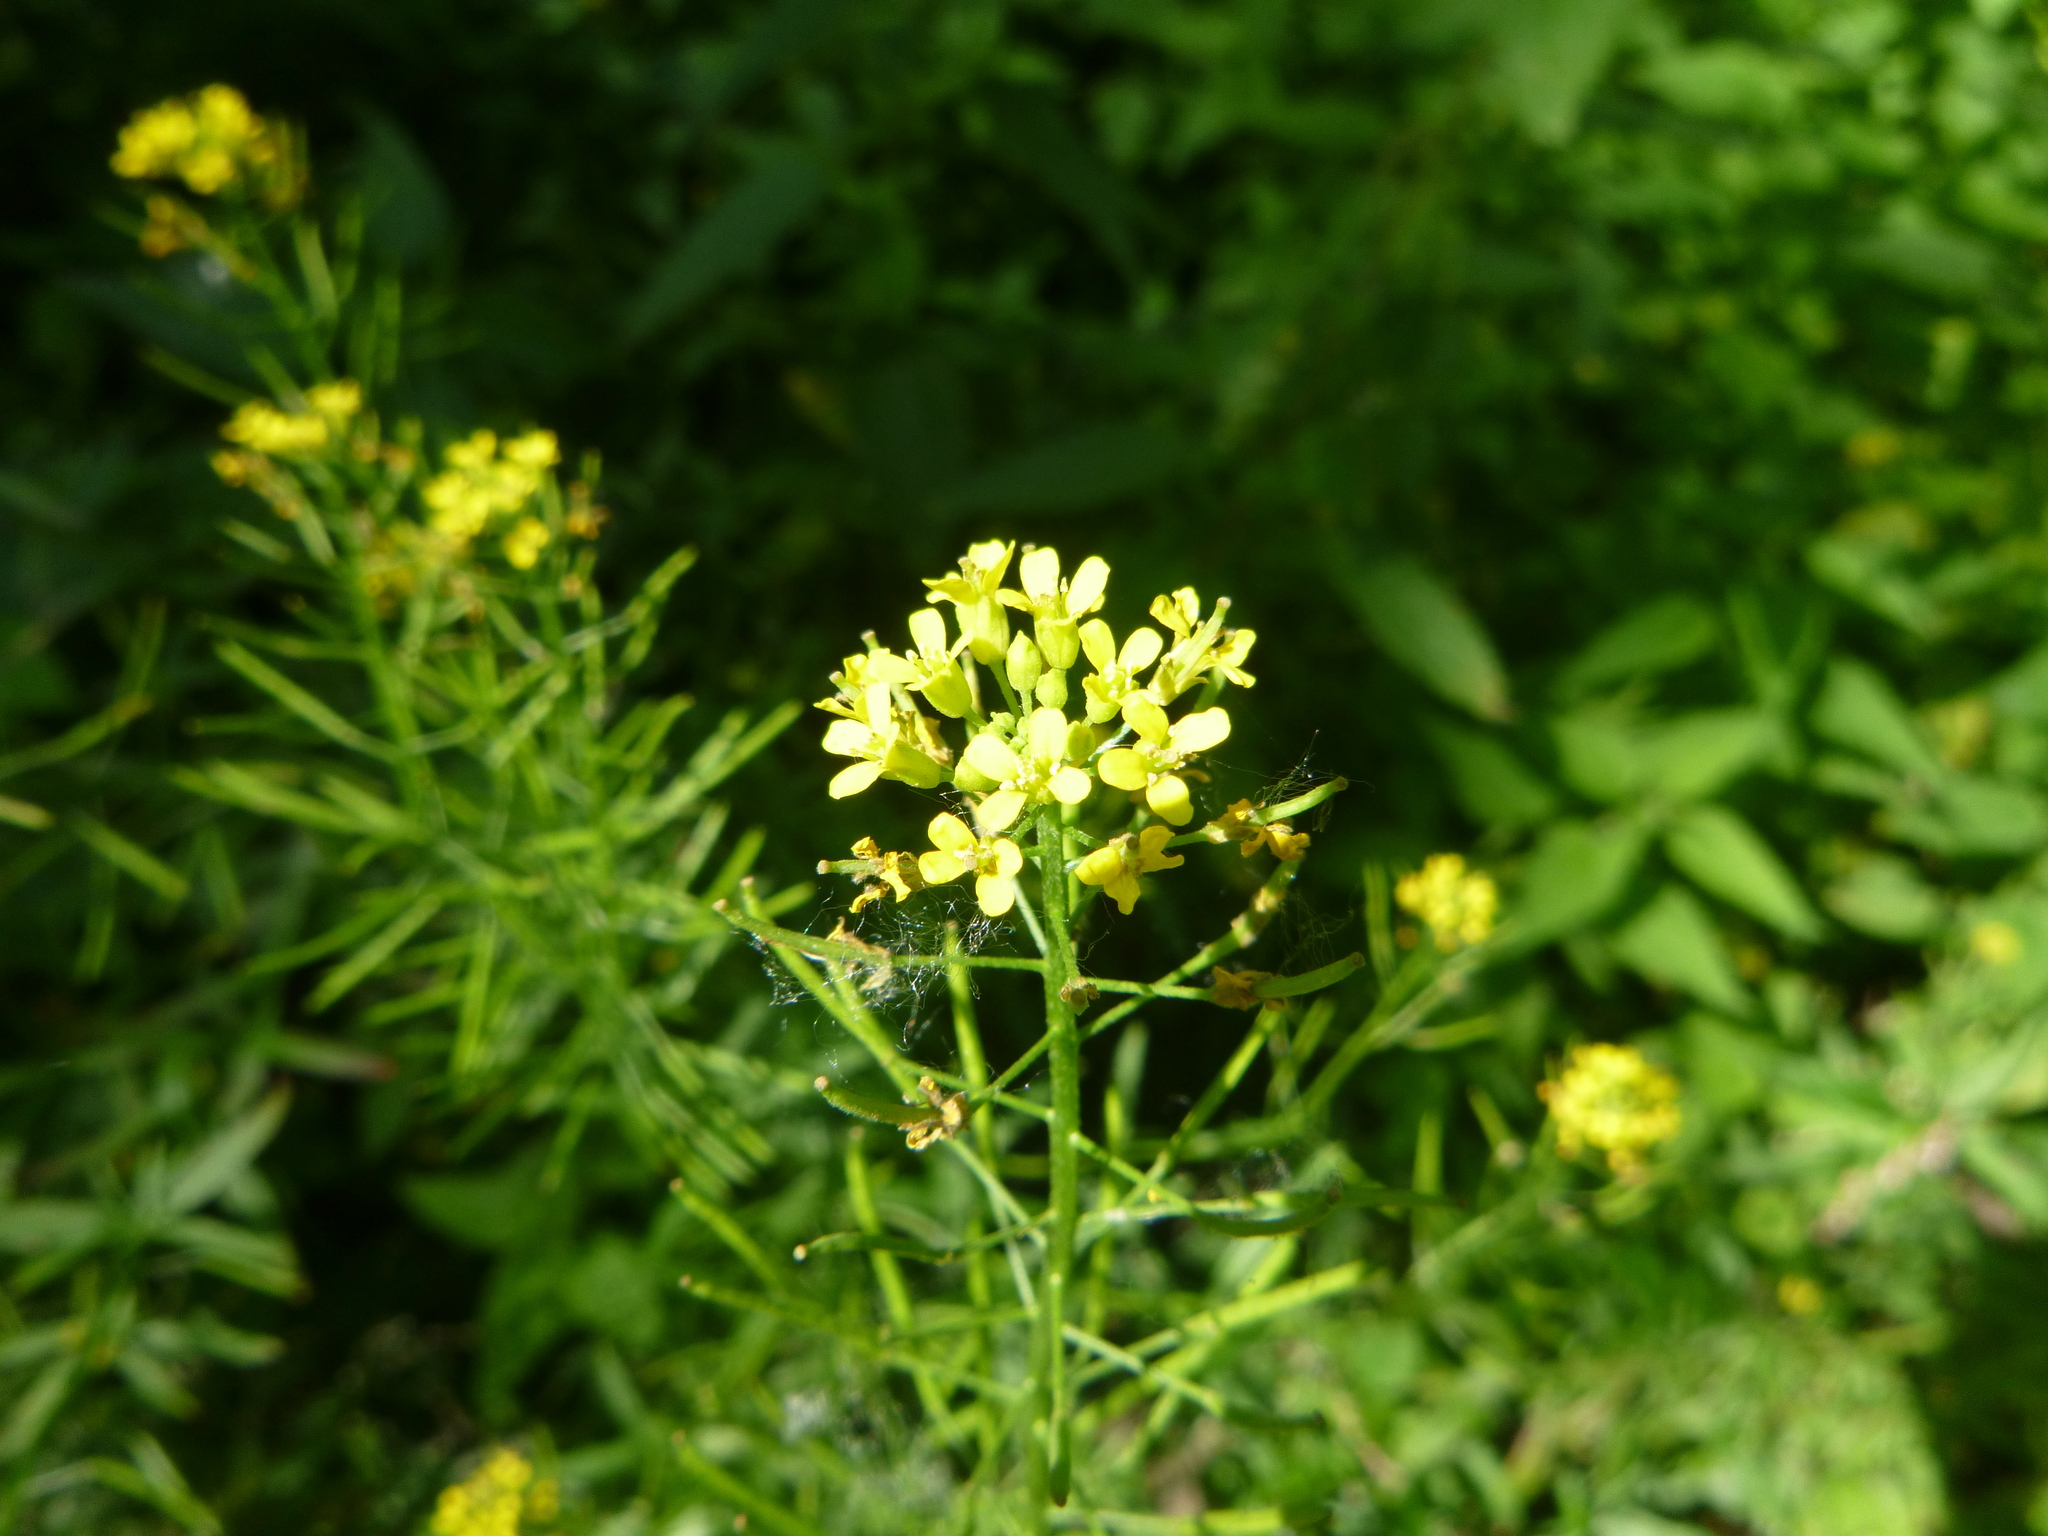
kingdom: Plantae
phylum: Tracheophyta
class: Magnoliopsida
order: Brassicales
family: Brassicaceae
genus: Erysimum
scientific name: Erysimum cheiranthoides
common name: Treacle mustard
